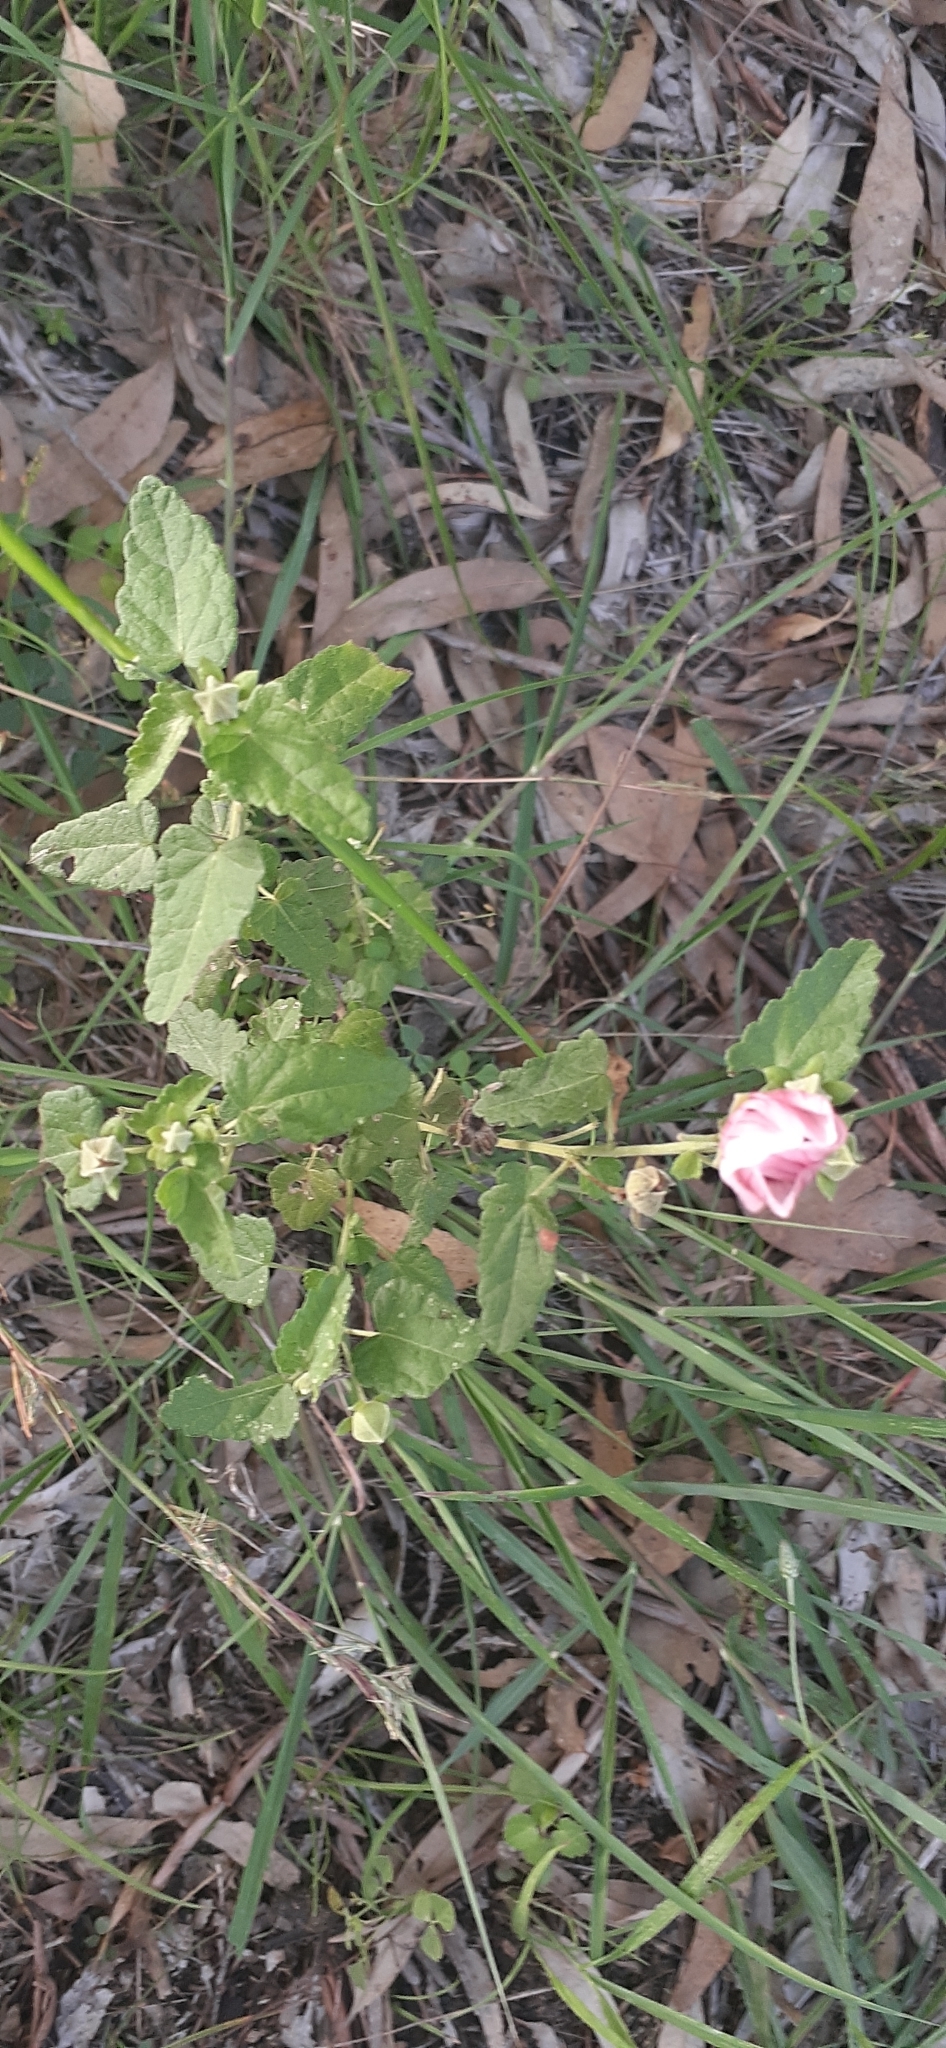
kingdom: Plantae
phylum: Tracheophyta
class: Magnoliopsida
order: Malvales
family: Malvaceae
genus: Pavonia
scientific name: Pavonia hastata
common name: Spearleaf swampmallow
